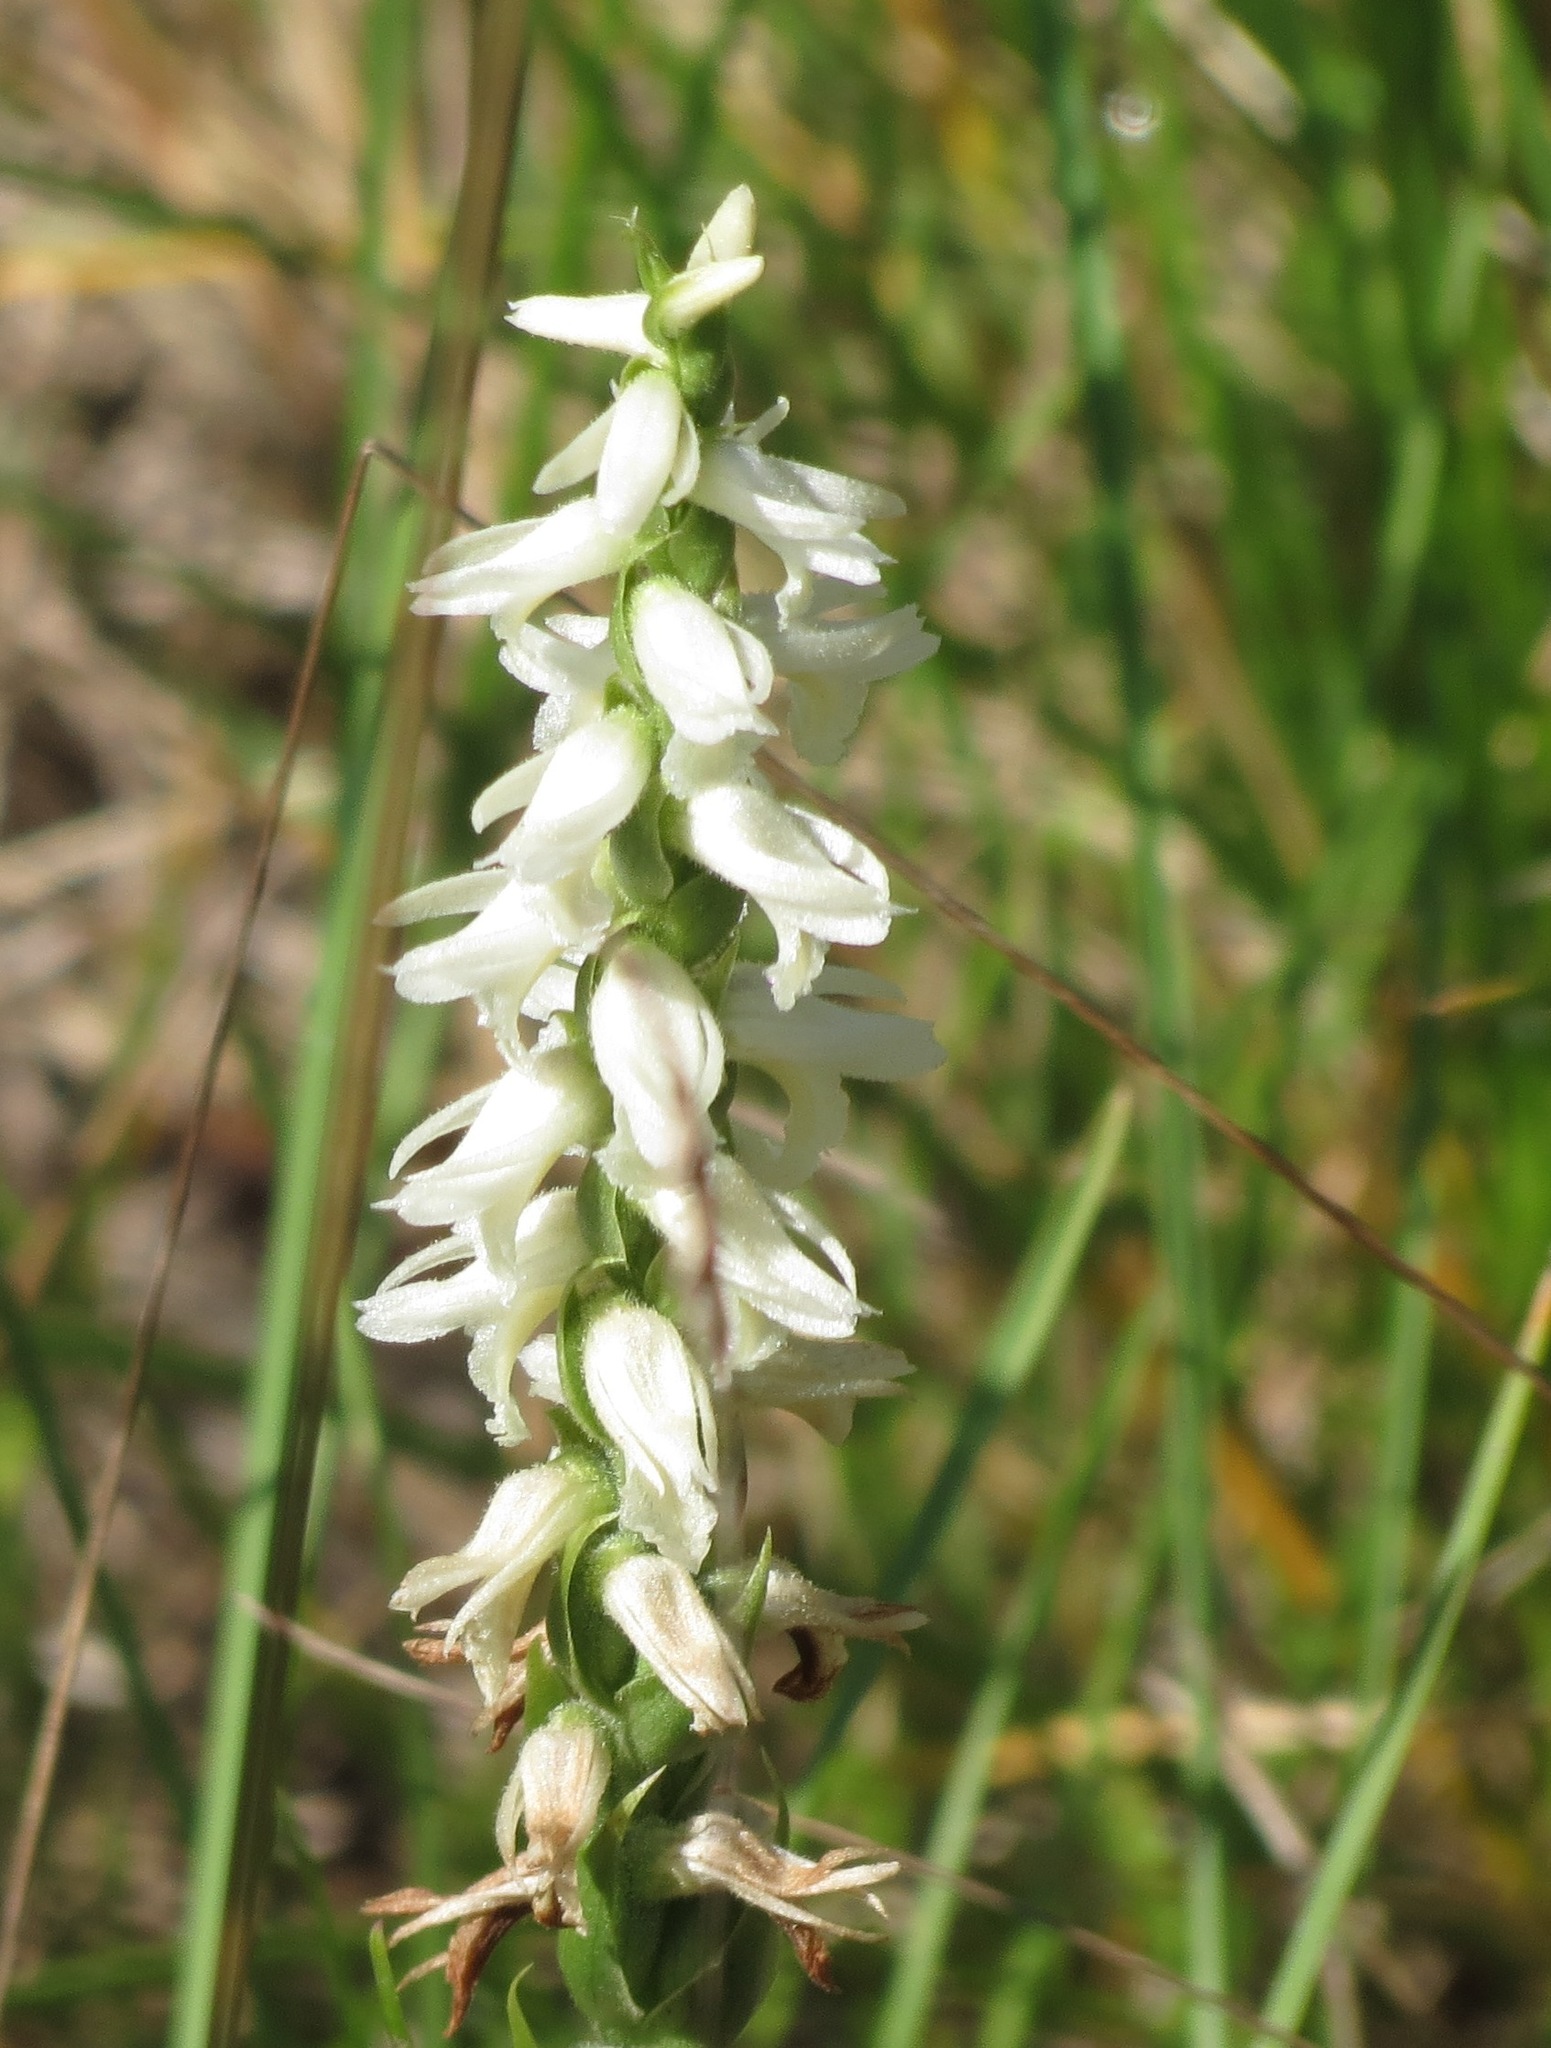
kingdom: Plantae
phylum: Tracheophyta
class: Liliopsida
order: Asparagales
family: Orchidaceae
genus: Spiranthes
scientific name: Spiranthes magnicamporum
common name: Great plains ladies'-tresses
